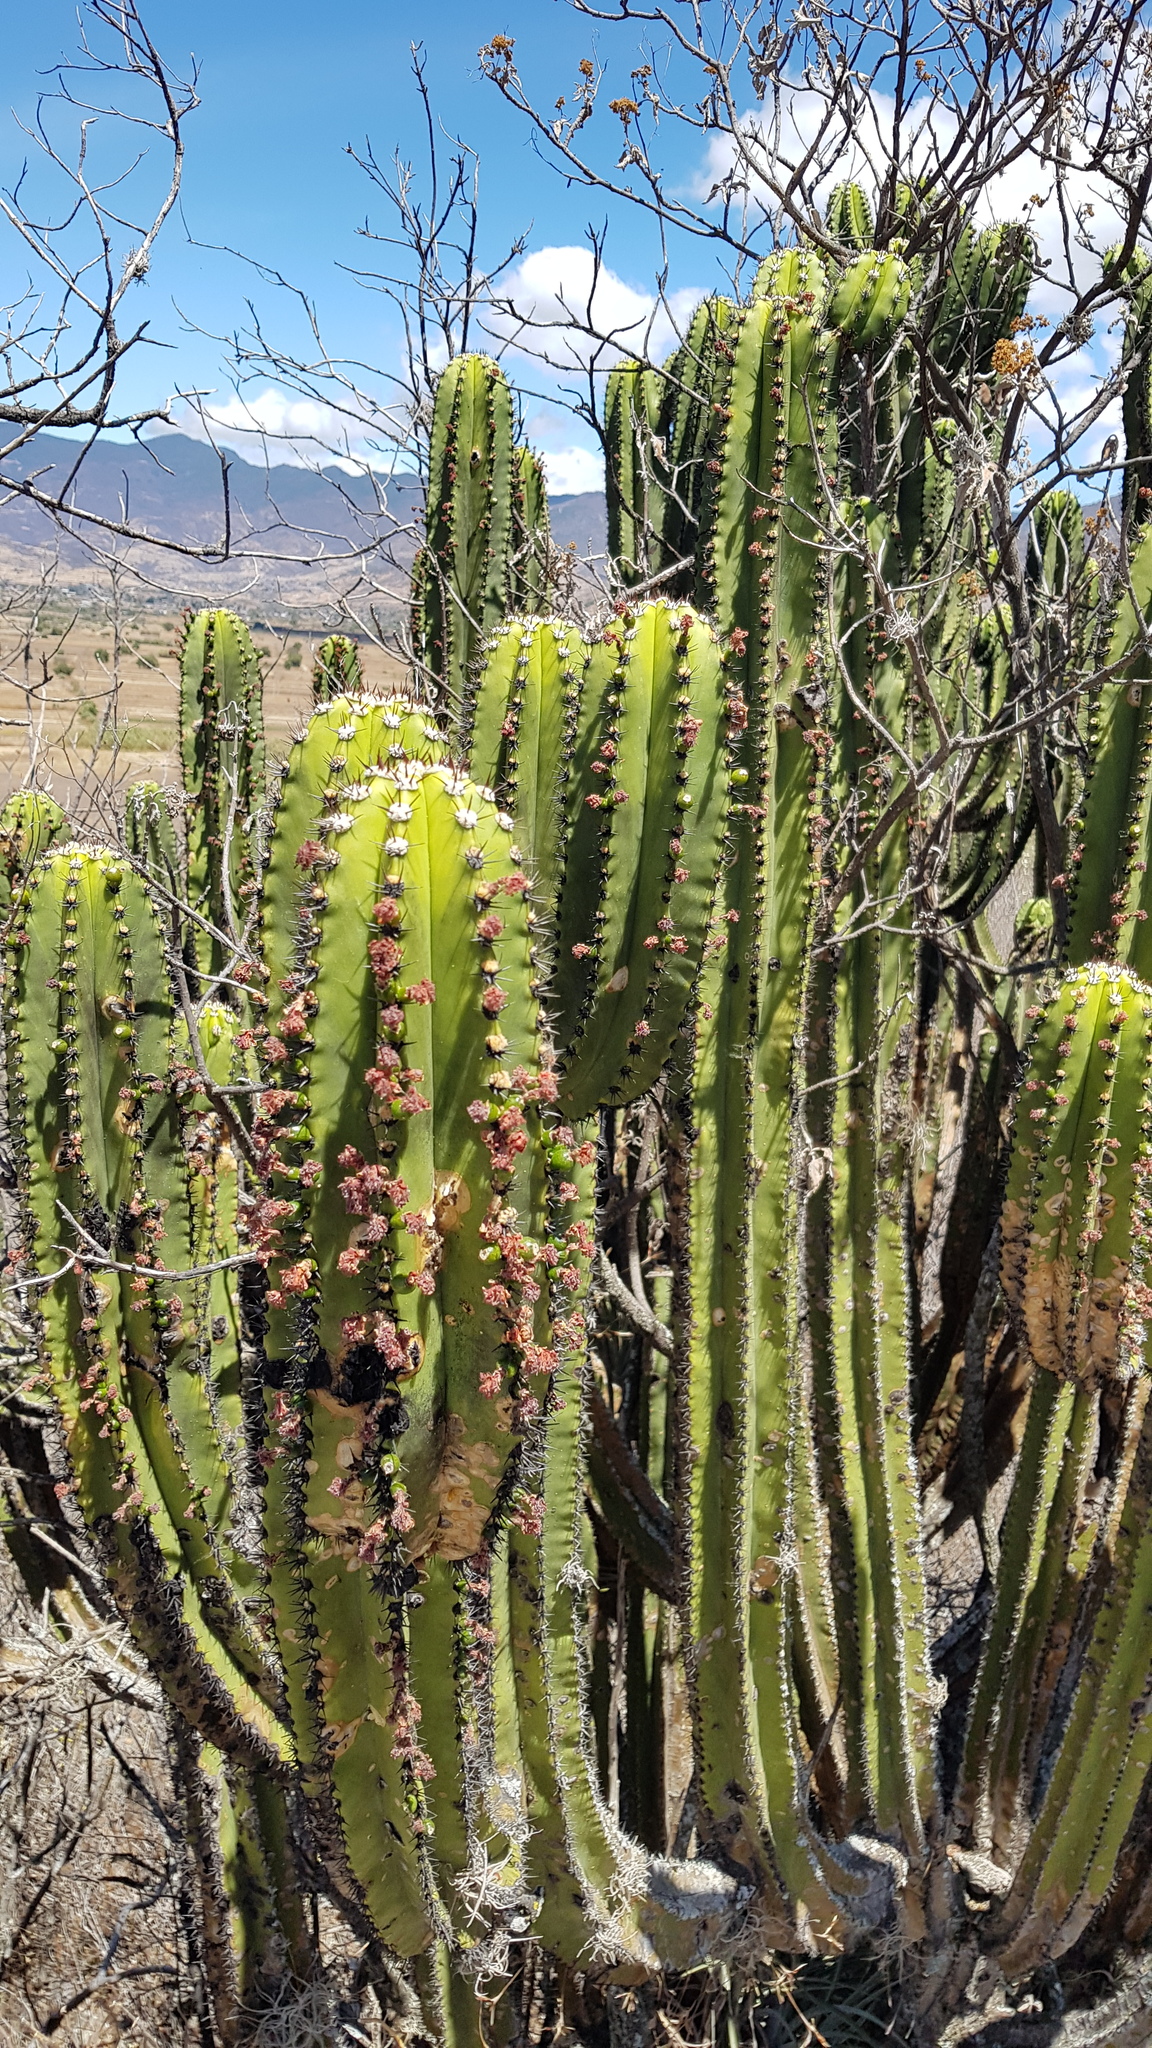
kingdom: Plantae
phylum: Tracheophyta
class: Magnoliopsida
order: Caryophyllales
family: Cactaceae
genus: Myrtillocactus
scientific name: Myrtillocactus schenckii
